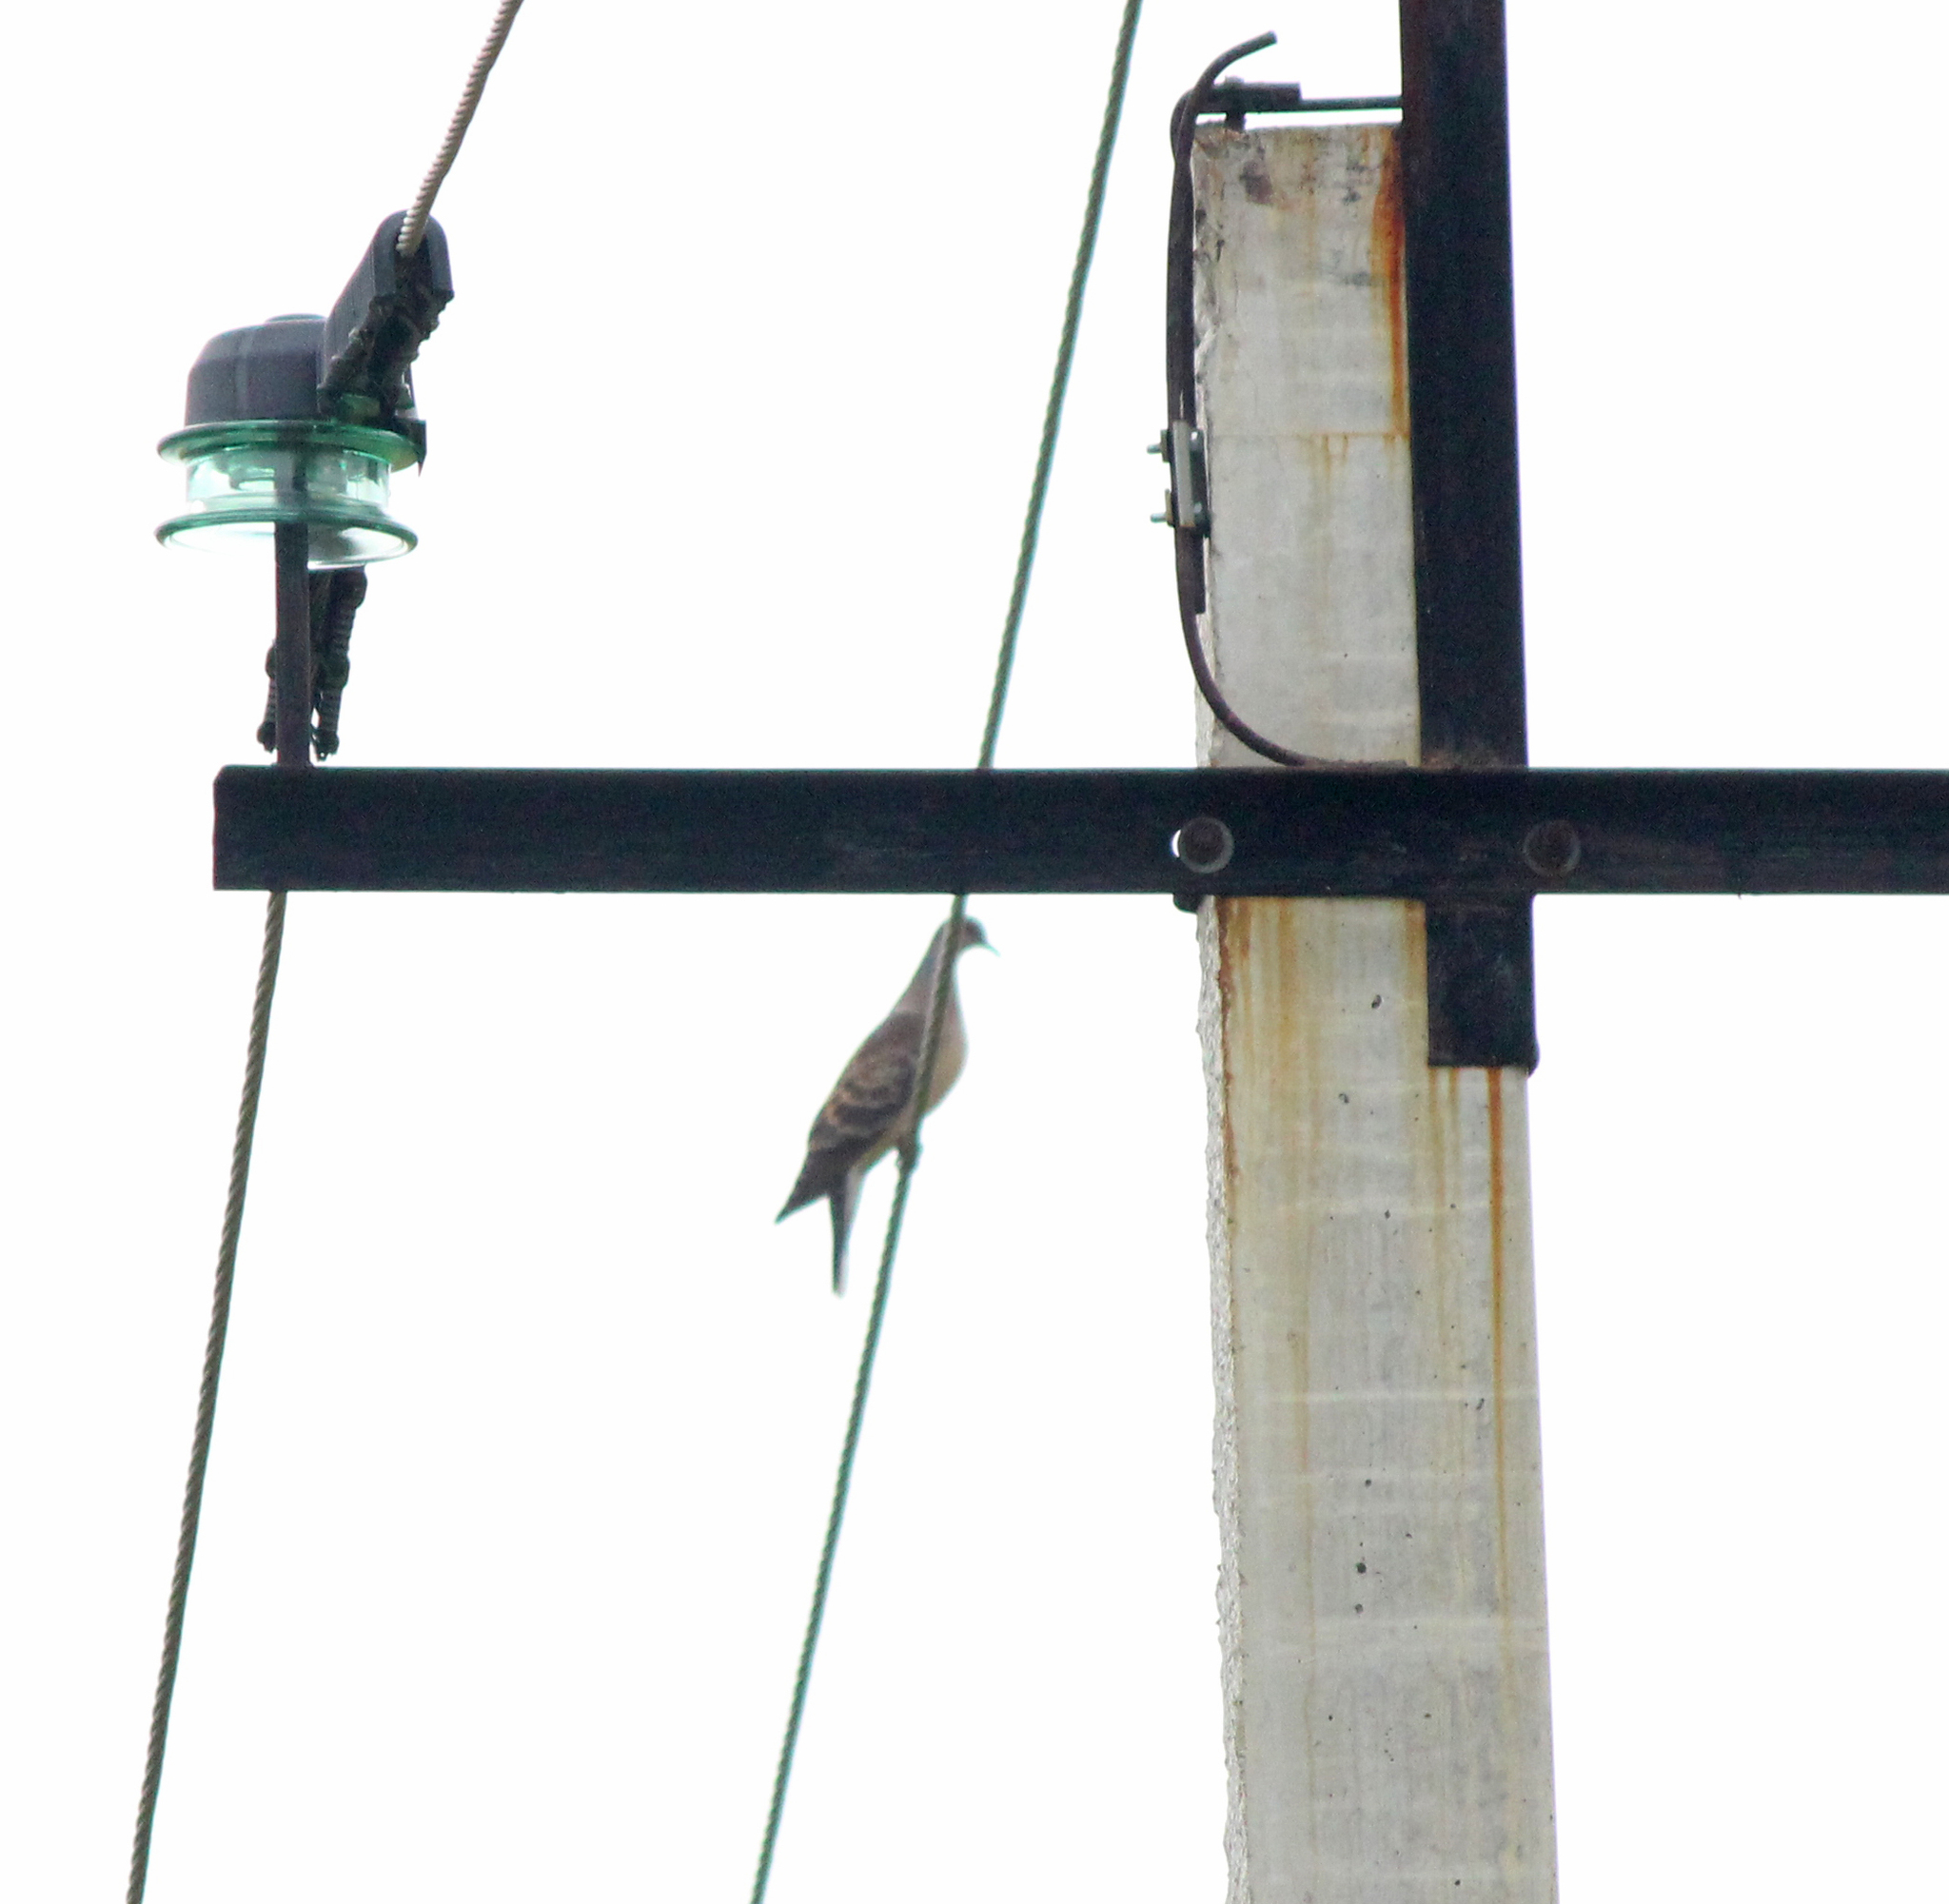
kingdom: Animalia
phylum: Chordata
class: Aves
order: Columbiformes
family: Columbidae
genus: Streptopelia
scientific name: Streptopelia orientalis
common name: Oriental turtle dove
